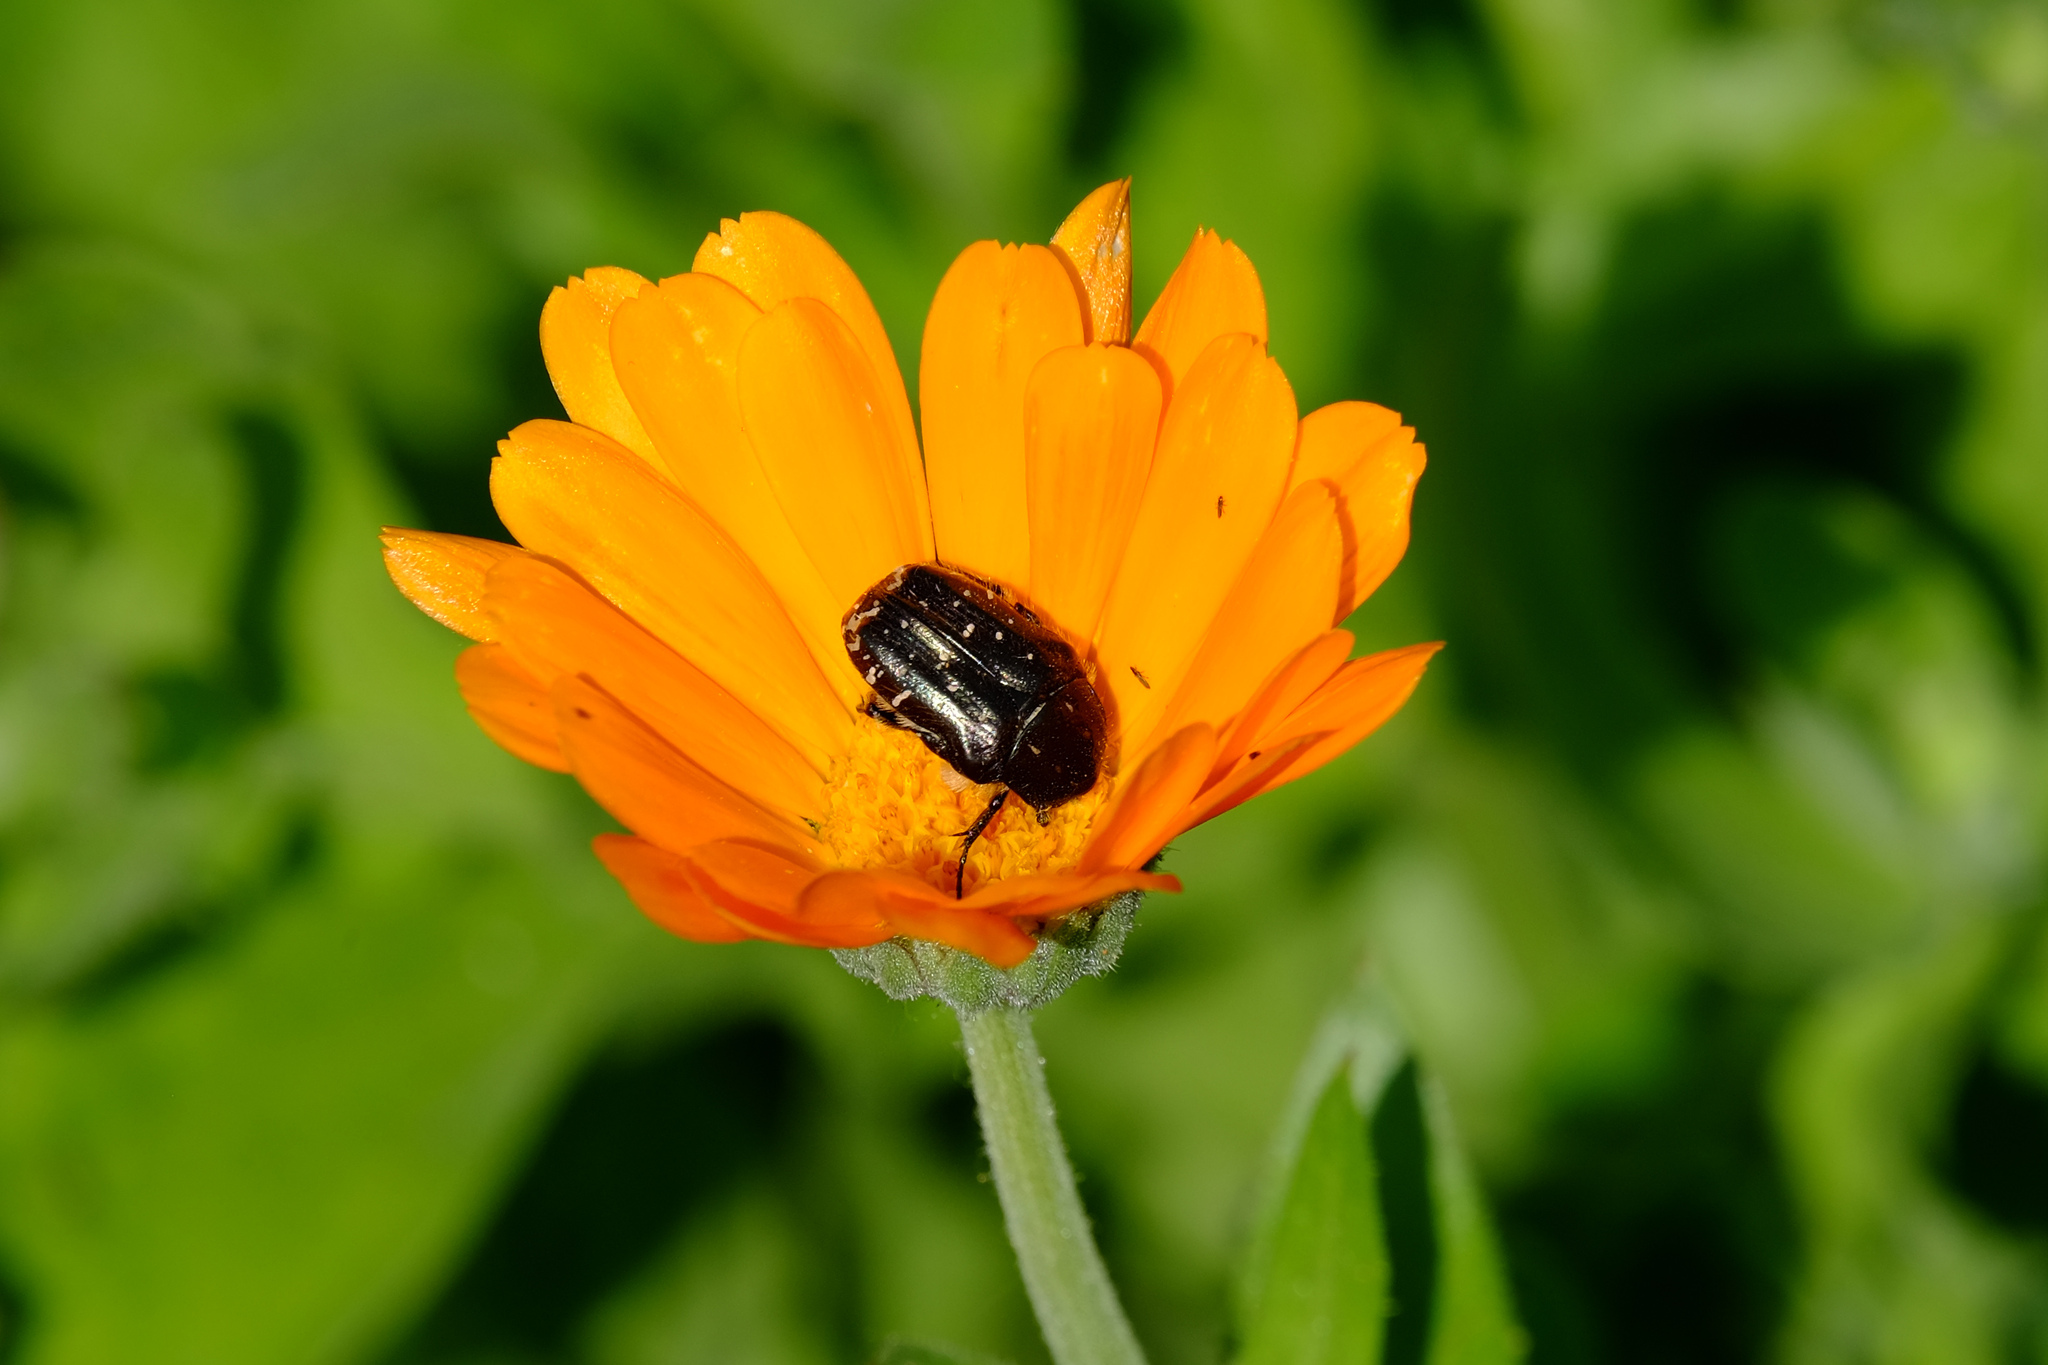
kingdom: Animalia
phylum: Arthropoda
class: Insecta
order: Coleoptera
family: Scarabaeidae
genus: Oxythyrea
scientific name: Oxythyrea funesta
